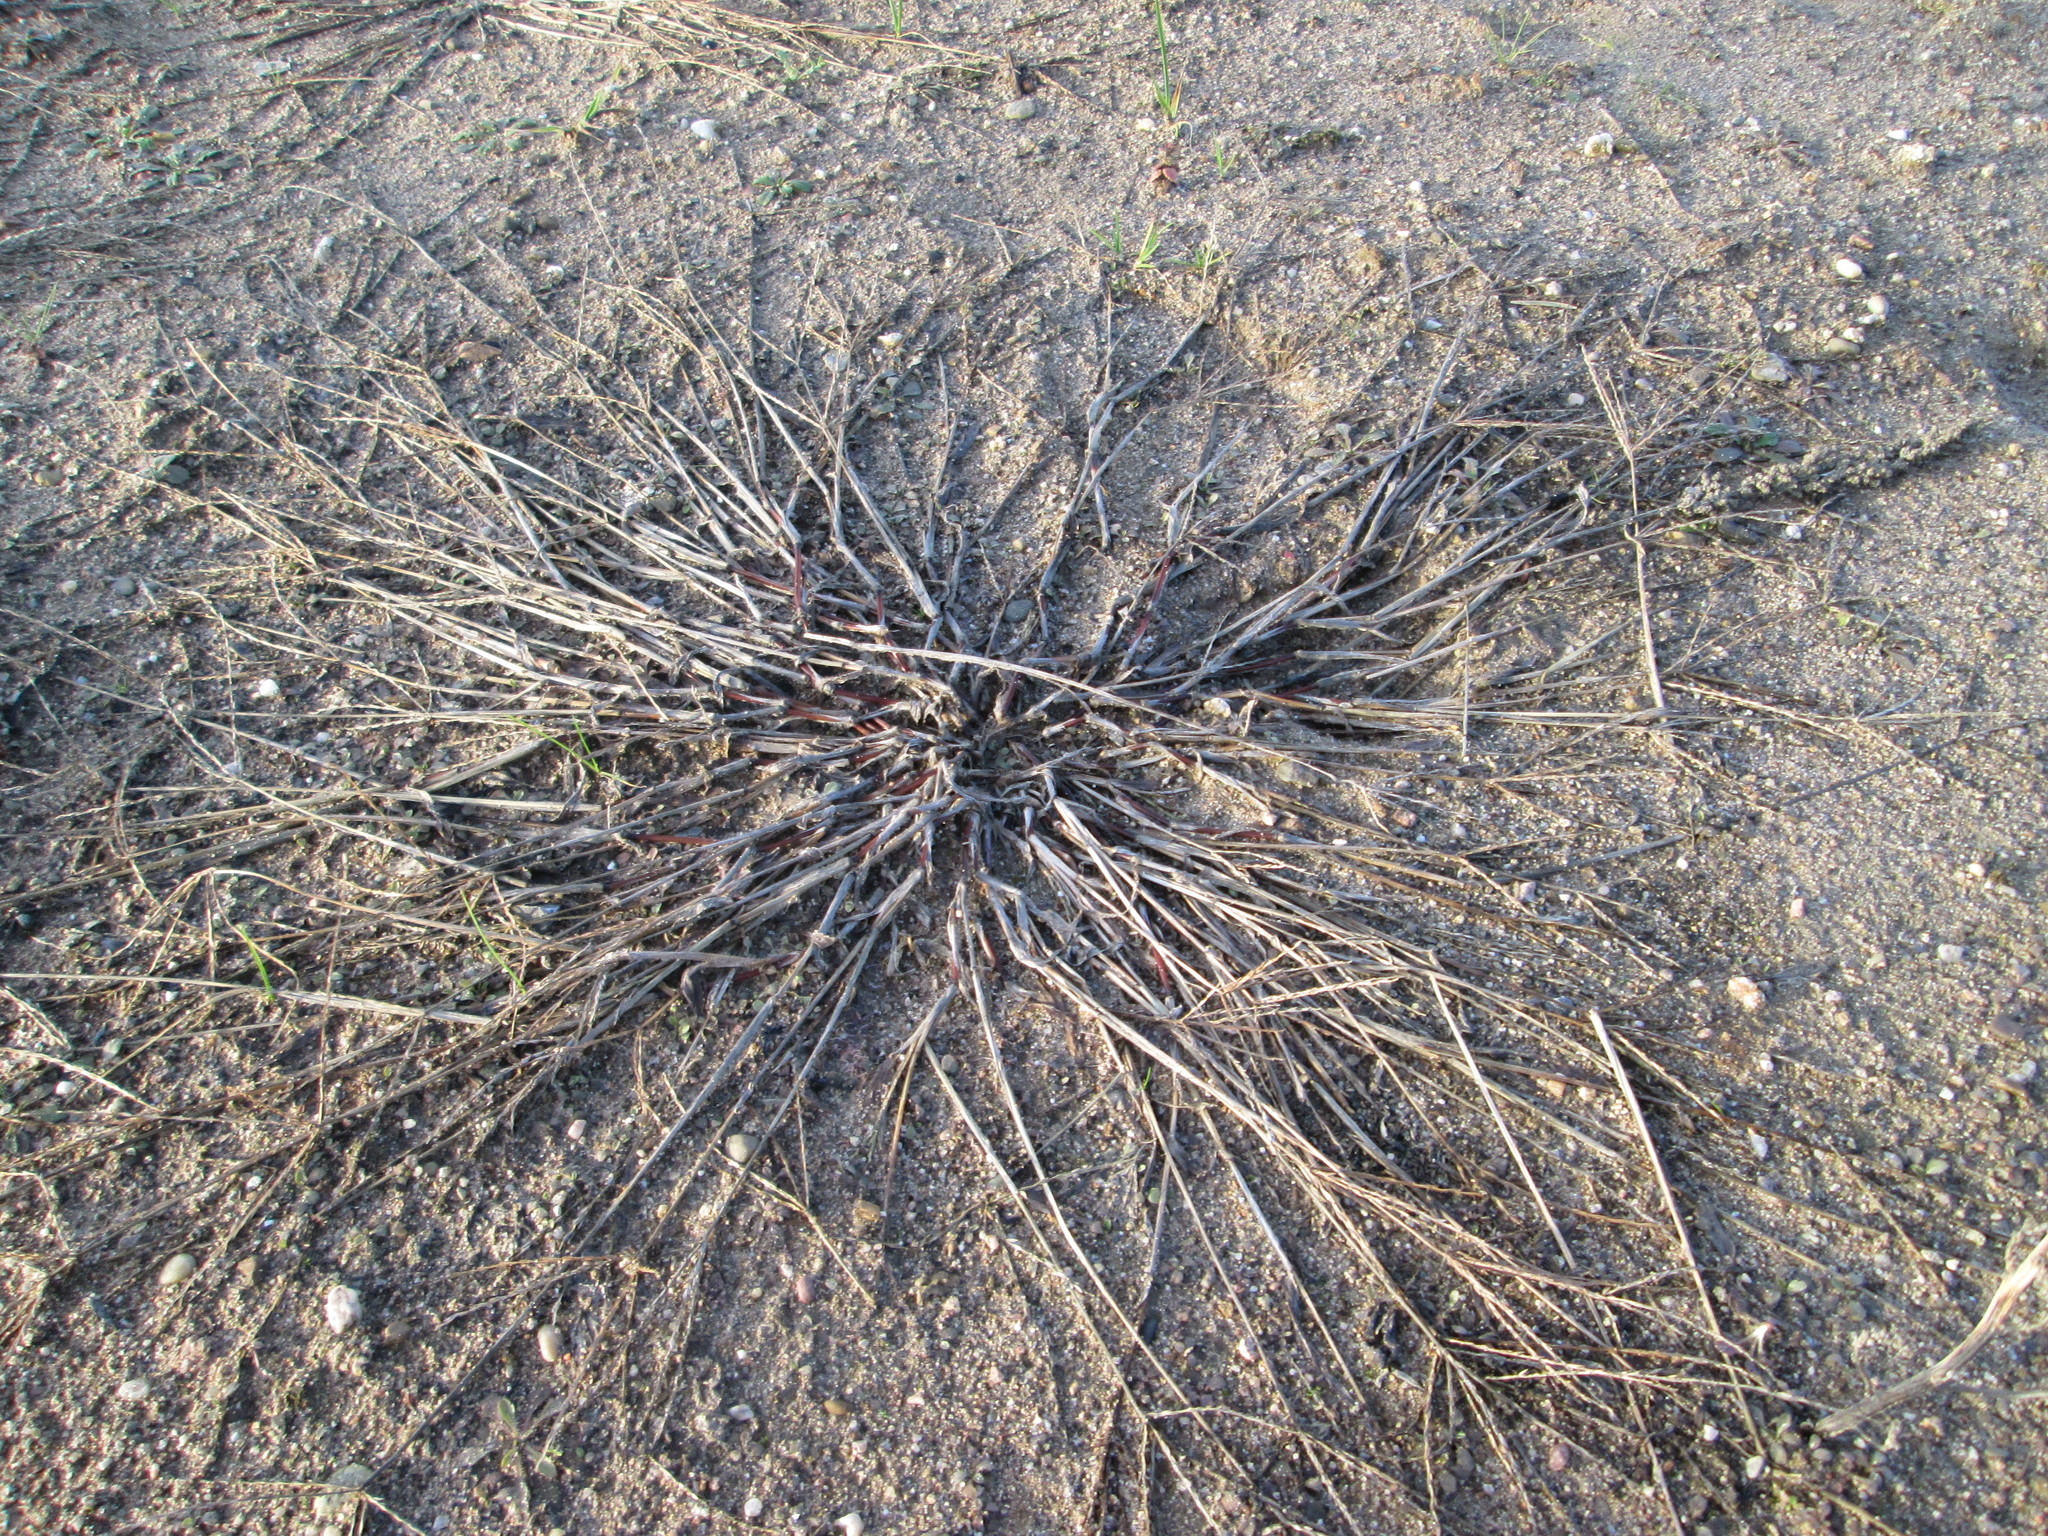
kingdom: Plantae
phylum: Tracheophyta
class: Liliopsida
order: Poales
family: Poaceae
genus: Digitaria
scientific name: Digitaria sanguinalis
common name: Hairy crabgrass
